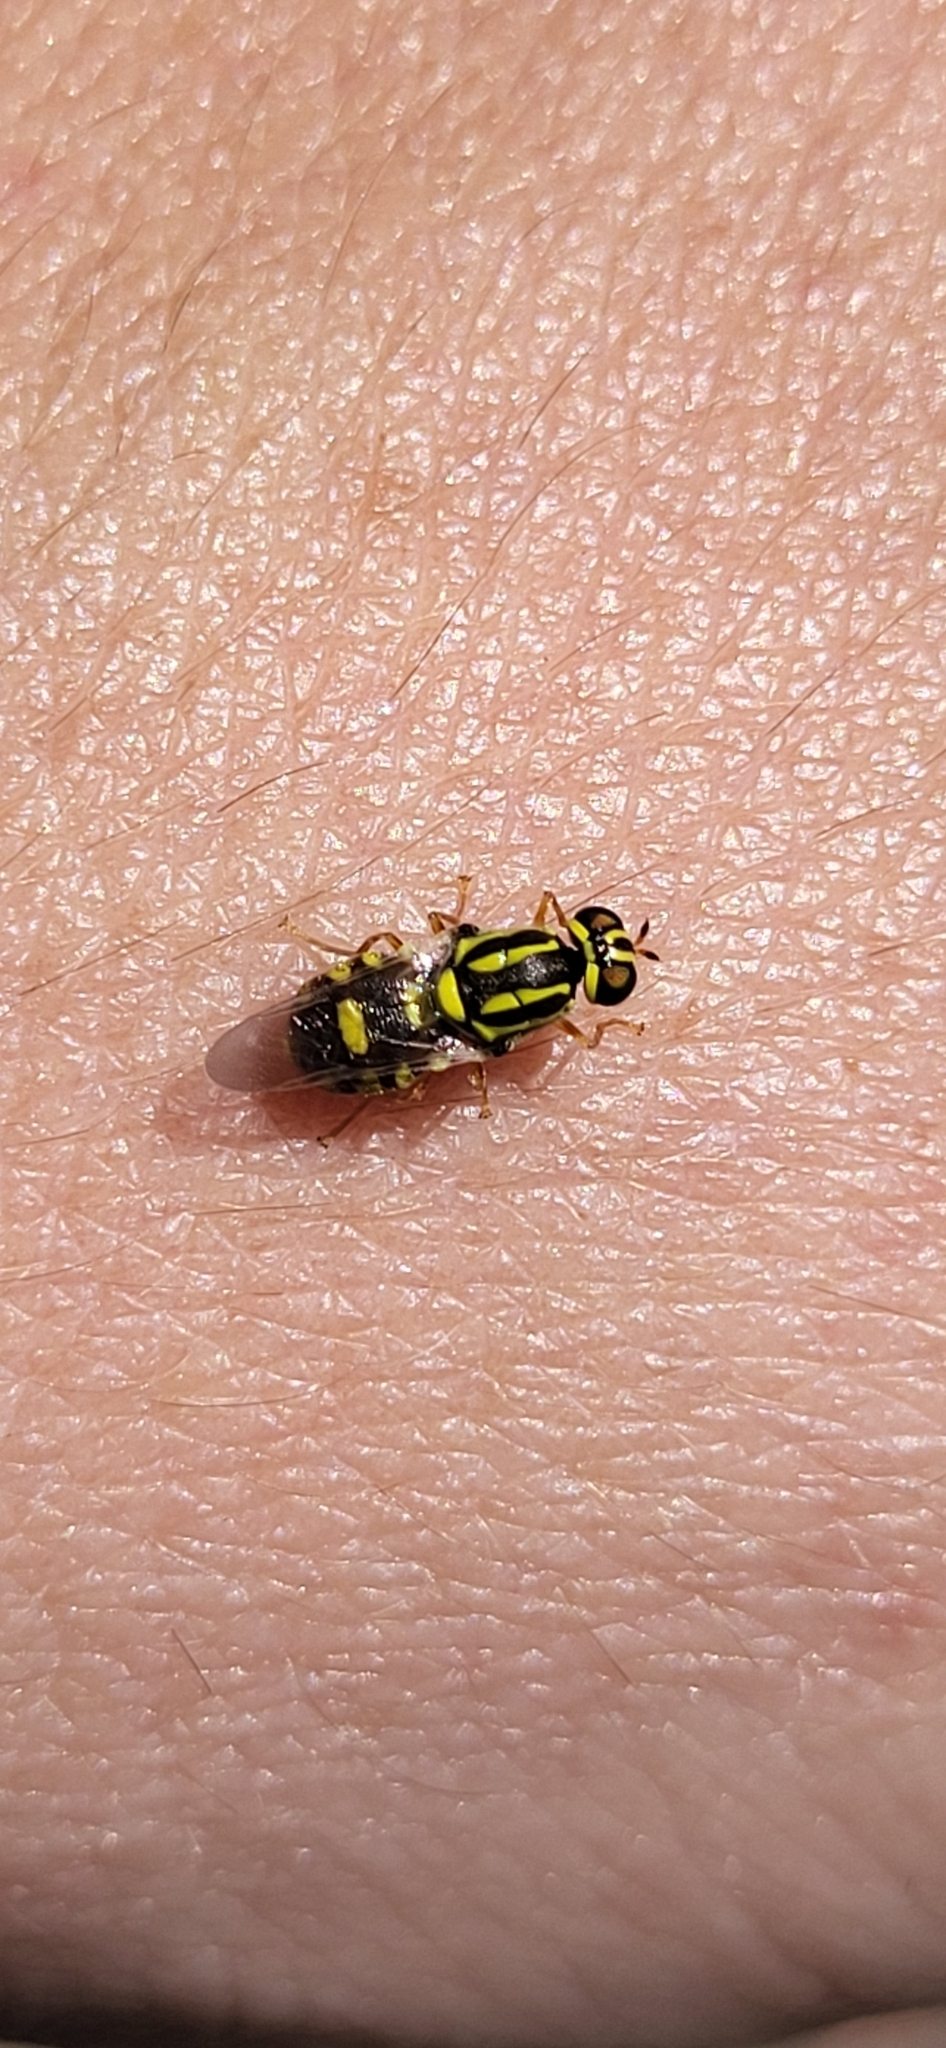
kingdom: Animalia
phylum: Arthropoda
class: Insecta
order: Diptera
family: Stratiomyidae
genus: Oxycera
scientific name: Oxycera variegata
